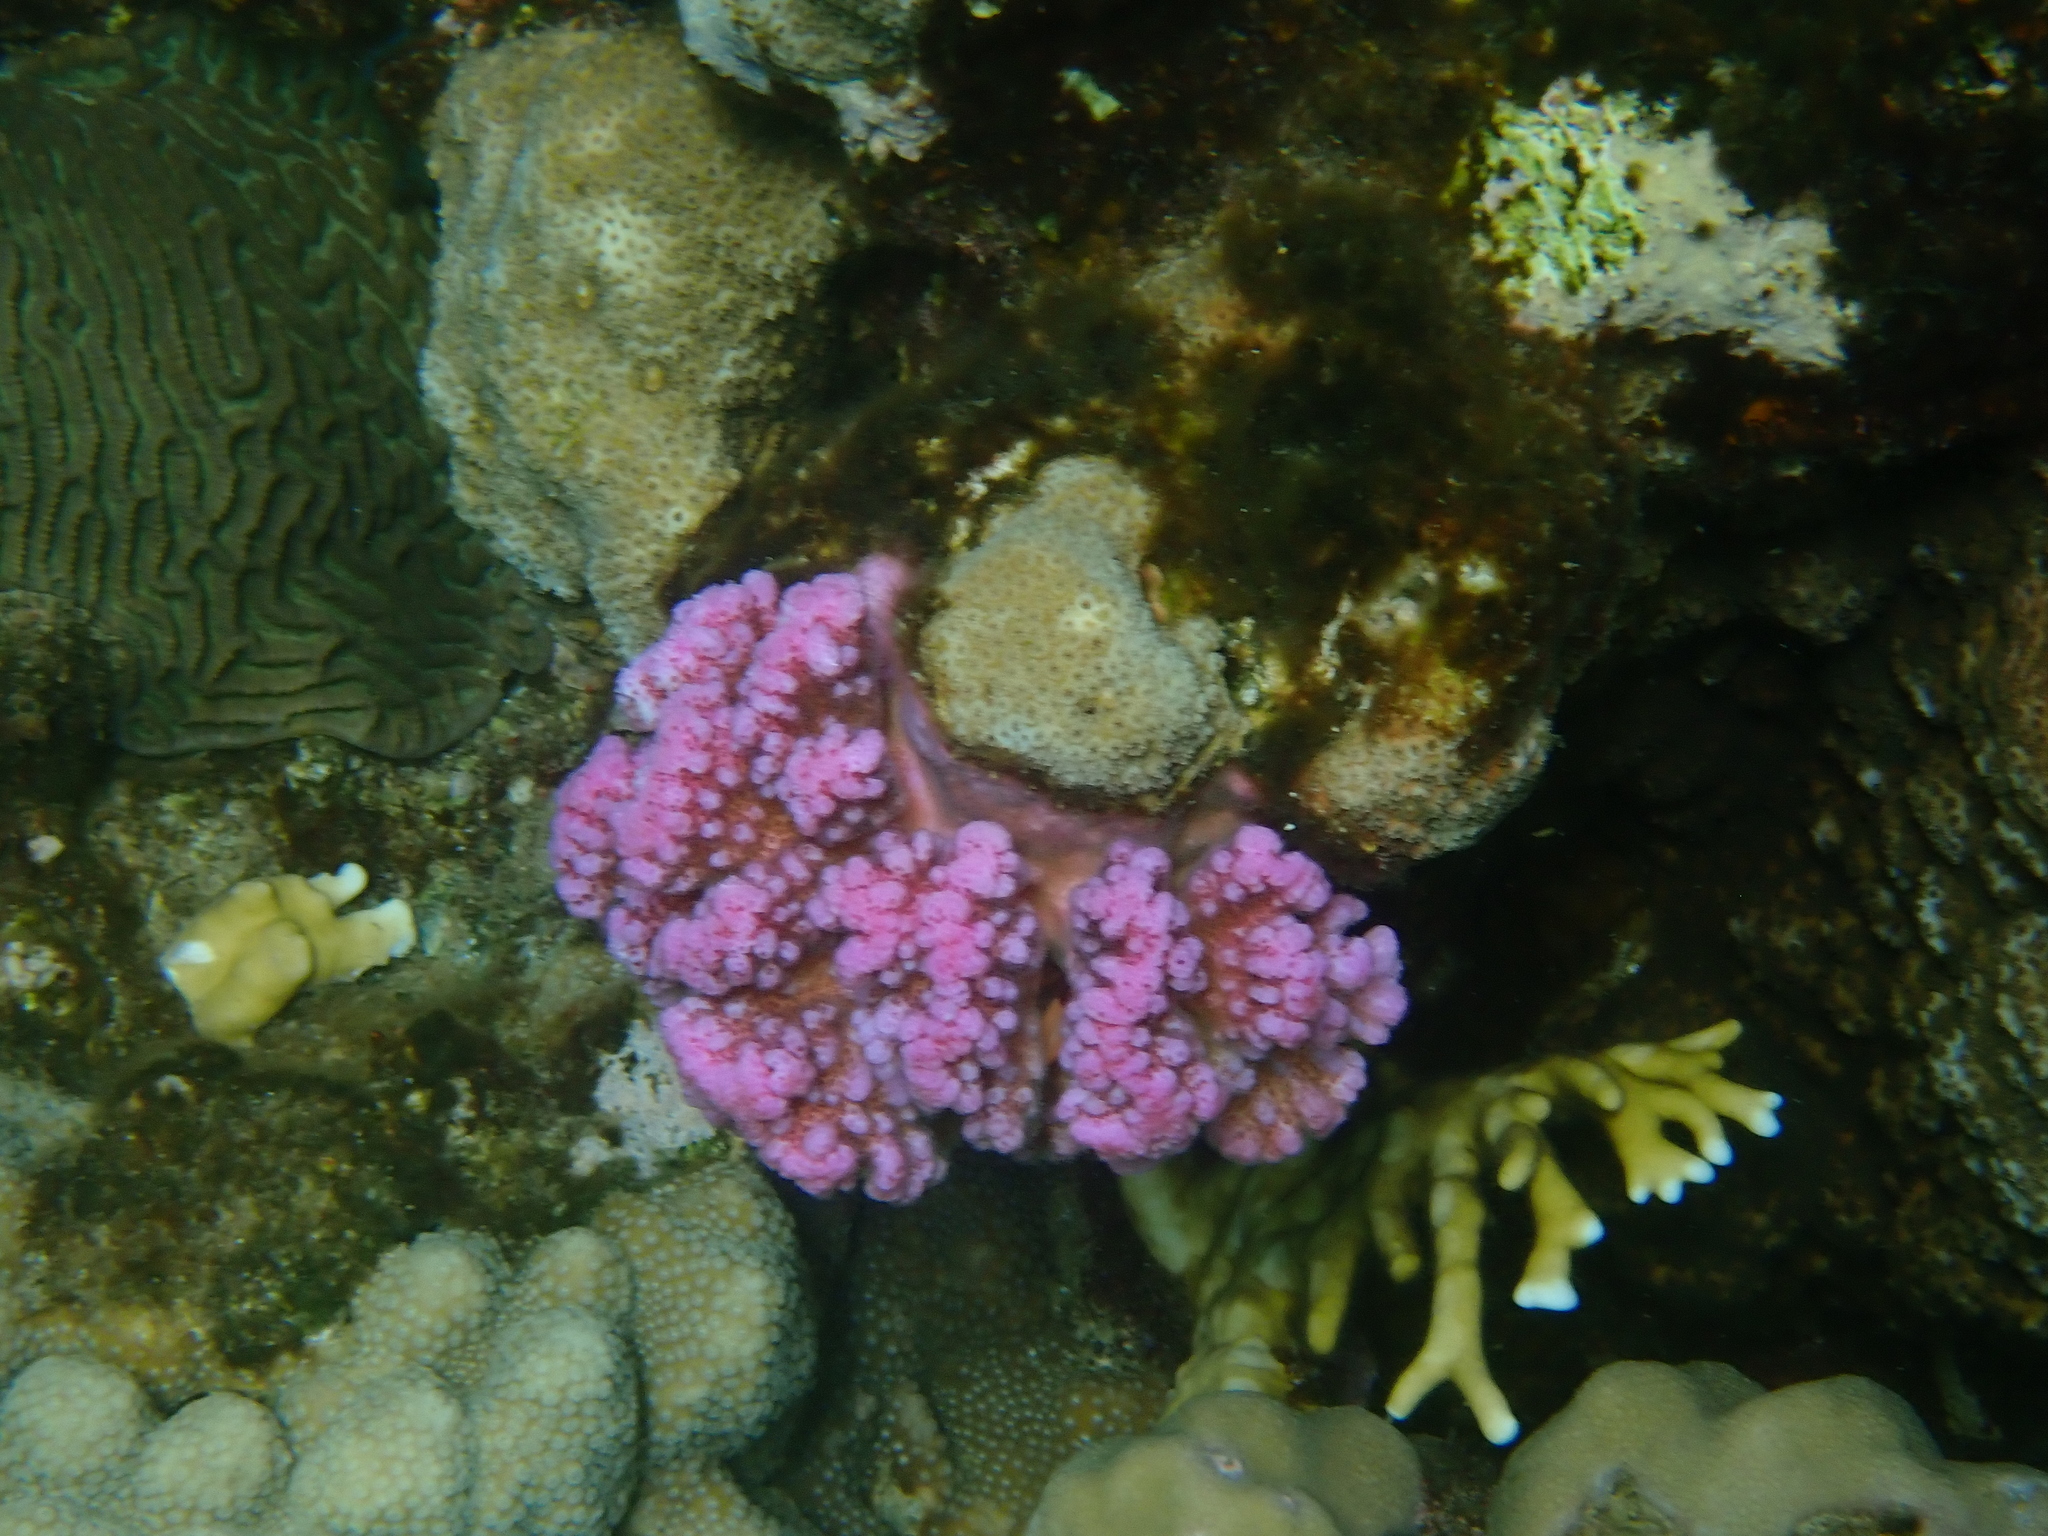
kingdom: Animalia
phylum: Cnidaria
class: Anthozoa
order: Scleractinia
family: Pocilloporidae
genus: Pocillopora
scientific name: Pocillopora verrucosa
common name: Cauliflower coral
